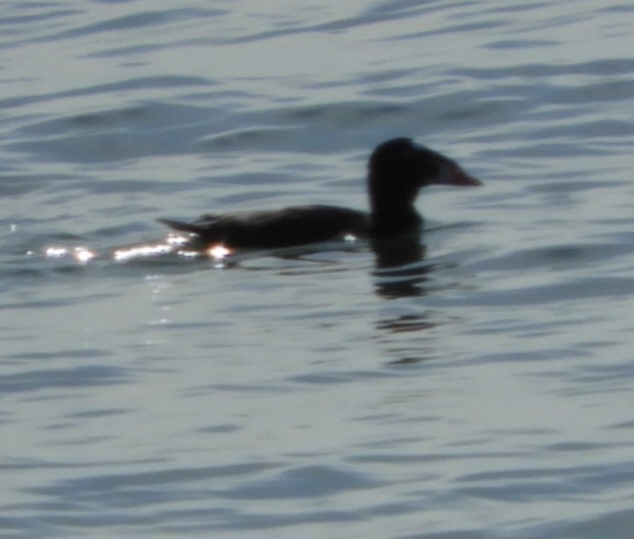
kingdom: Animalia
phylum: Chordata
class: Aves
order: Anseriformes
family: Anatidae
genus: Melanitta
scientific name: Melanitta perspicillata
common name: Surf scoter
